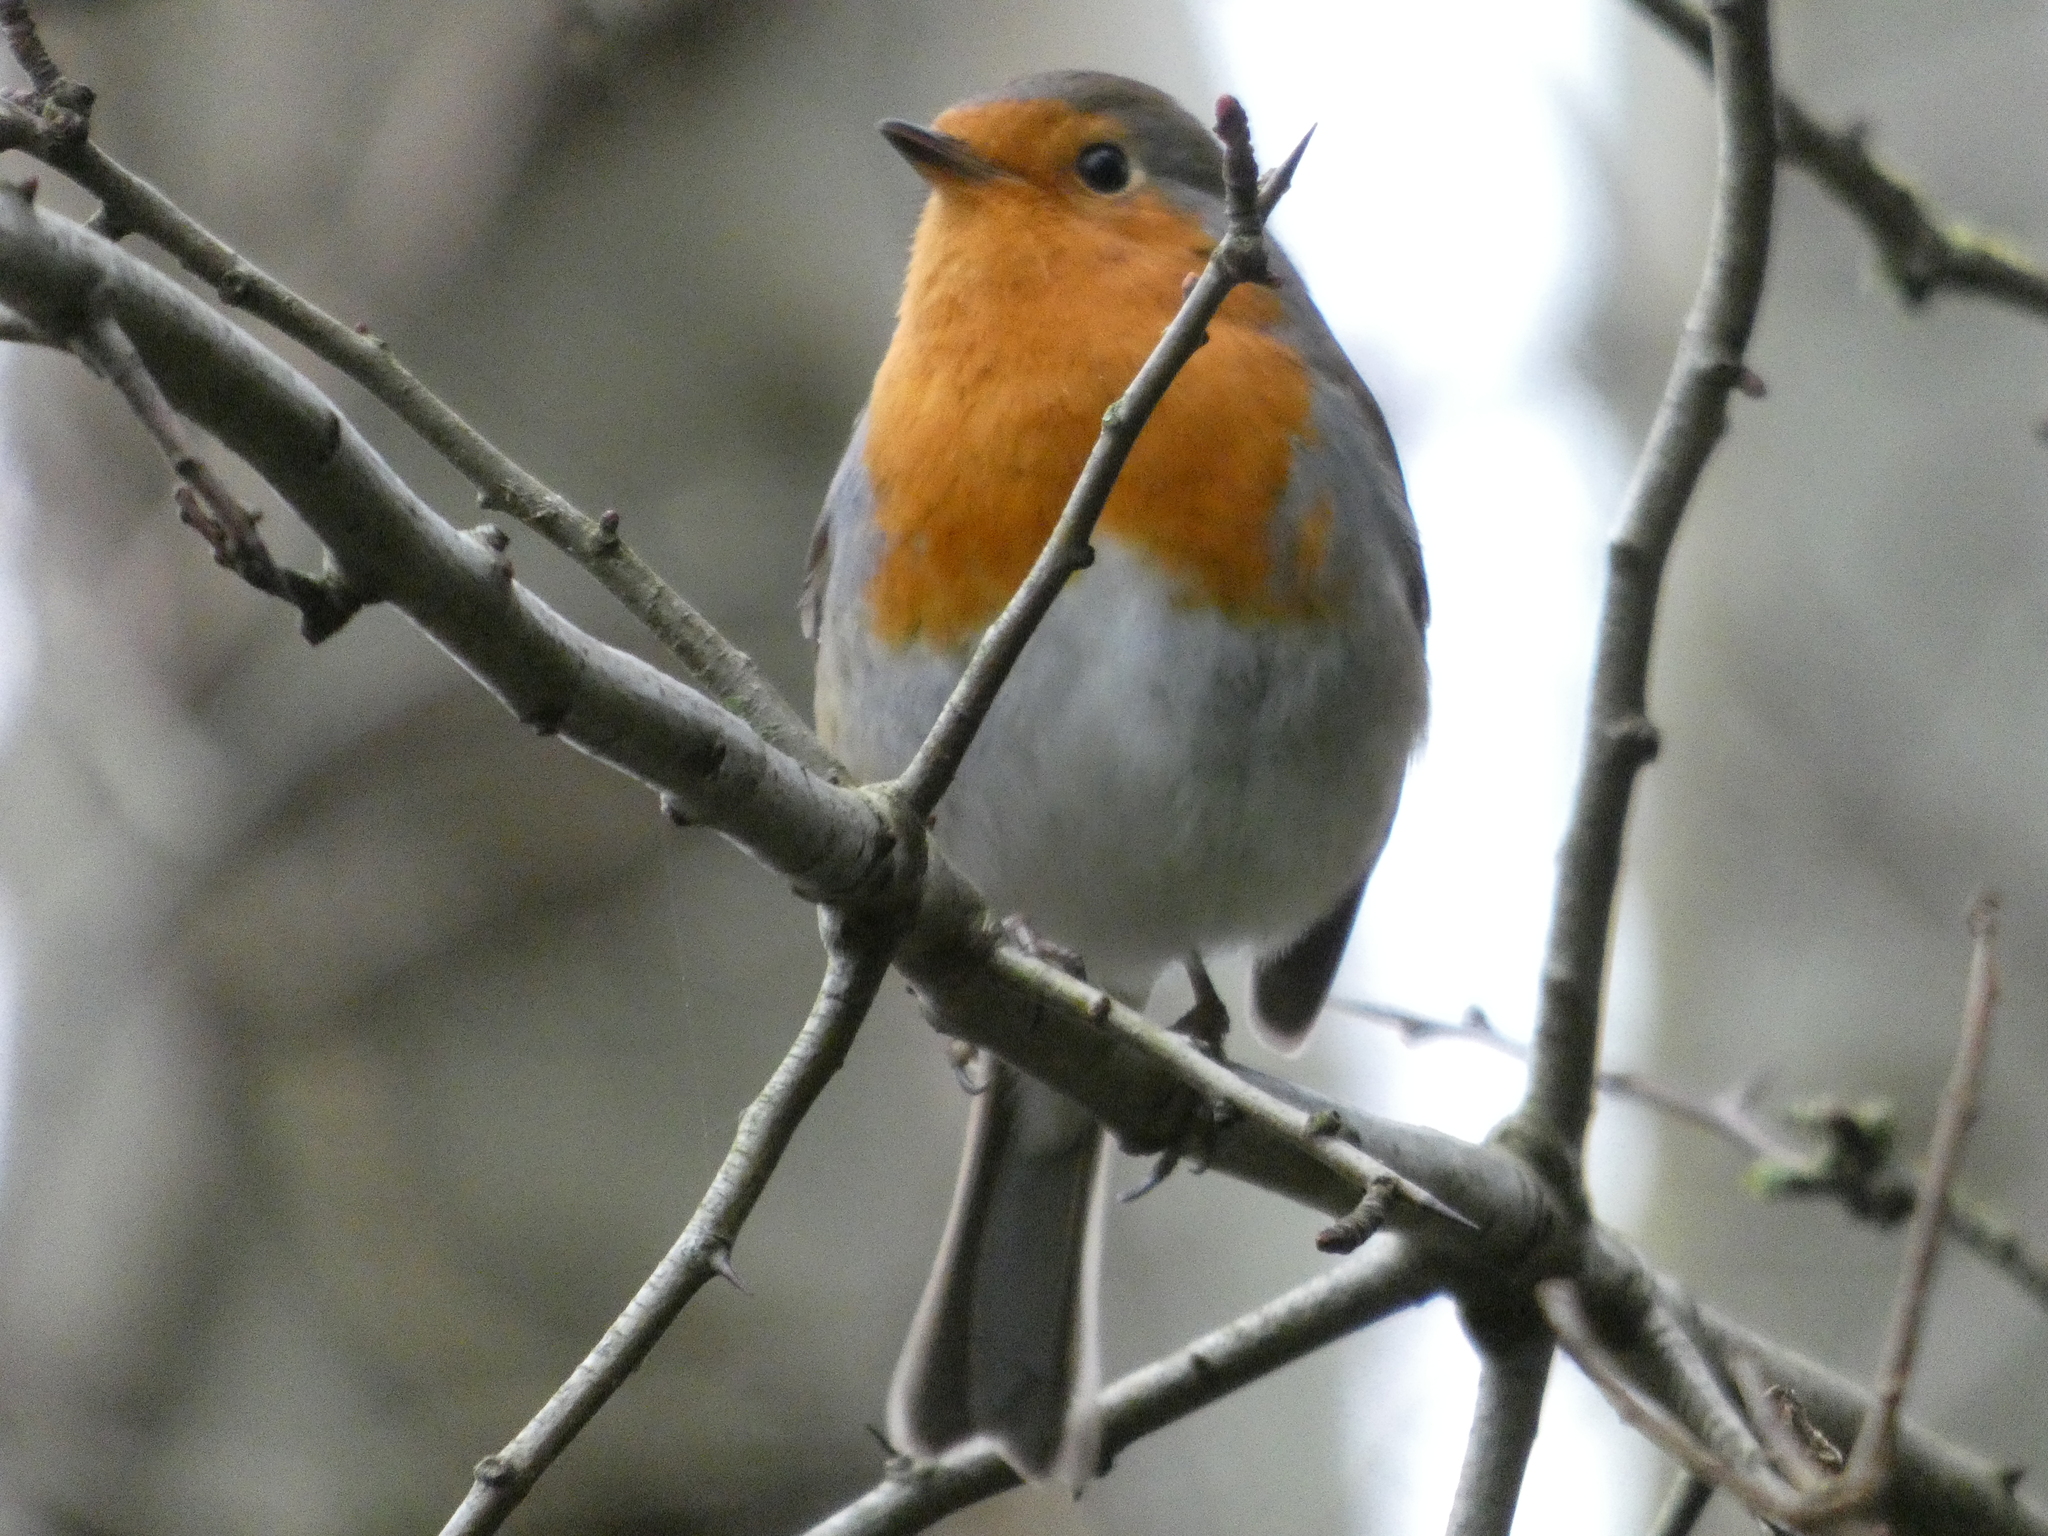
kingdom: Animalia
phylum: Chordata
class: Aves
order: Passeriformes
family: Muscicapidae
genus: Erithacus
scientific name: Erithacus rubecula
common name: European robin
